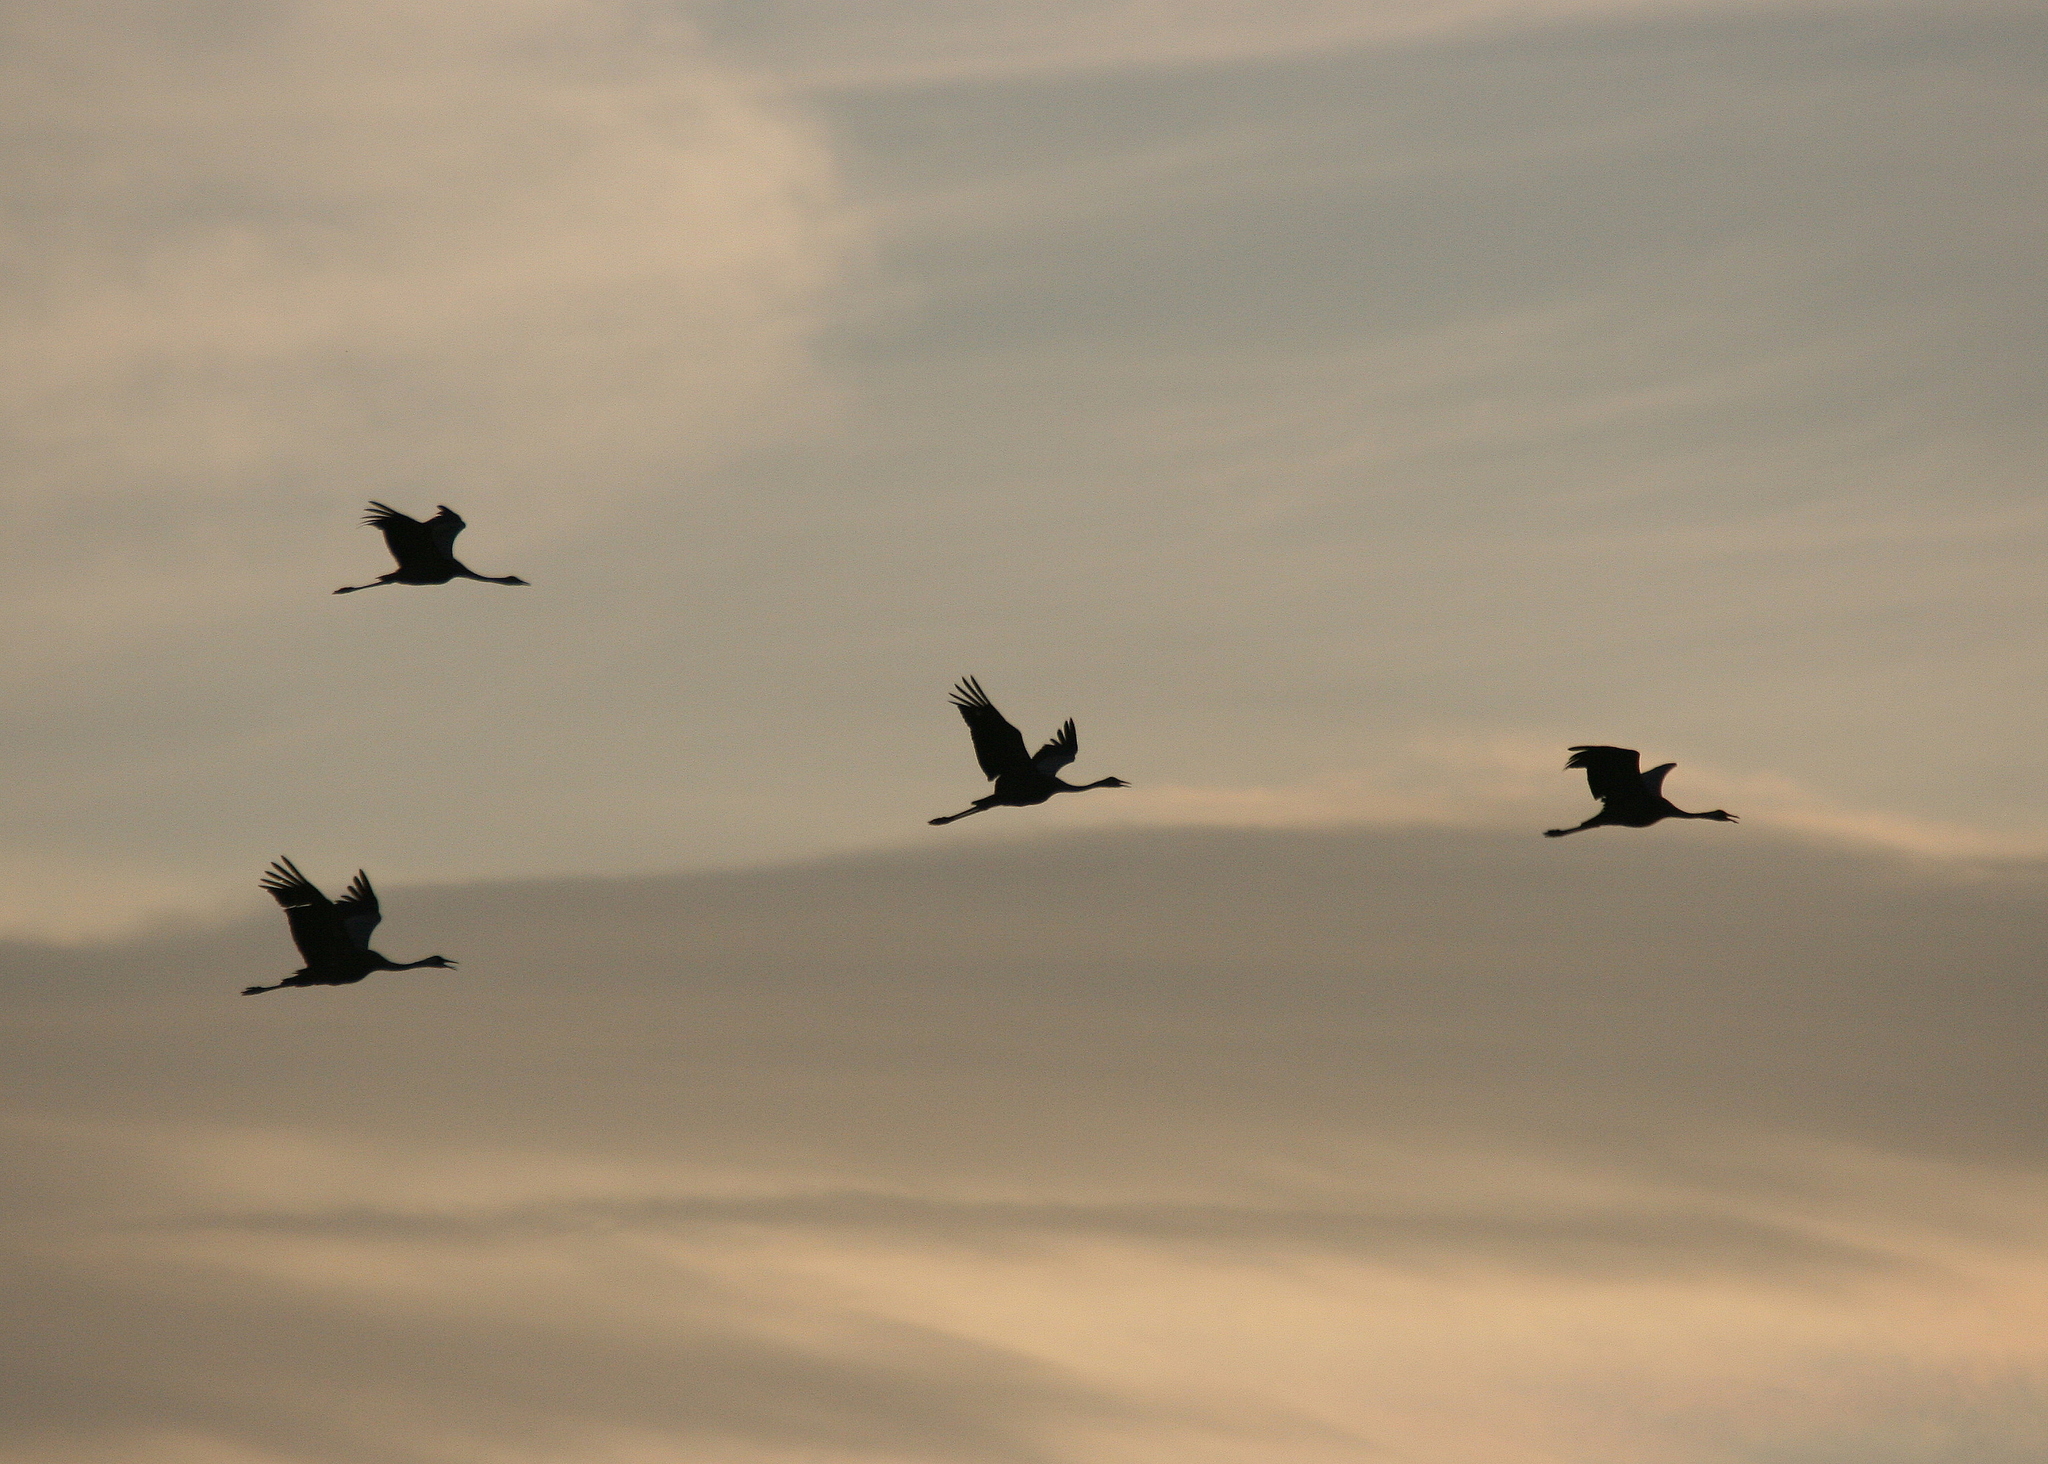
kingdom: Animalia
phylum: Chordata
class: Aves
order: Gruiformes
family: Gruidae
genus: Grus
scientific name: Grus grus
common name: Common crane
